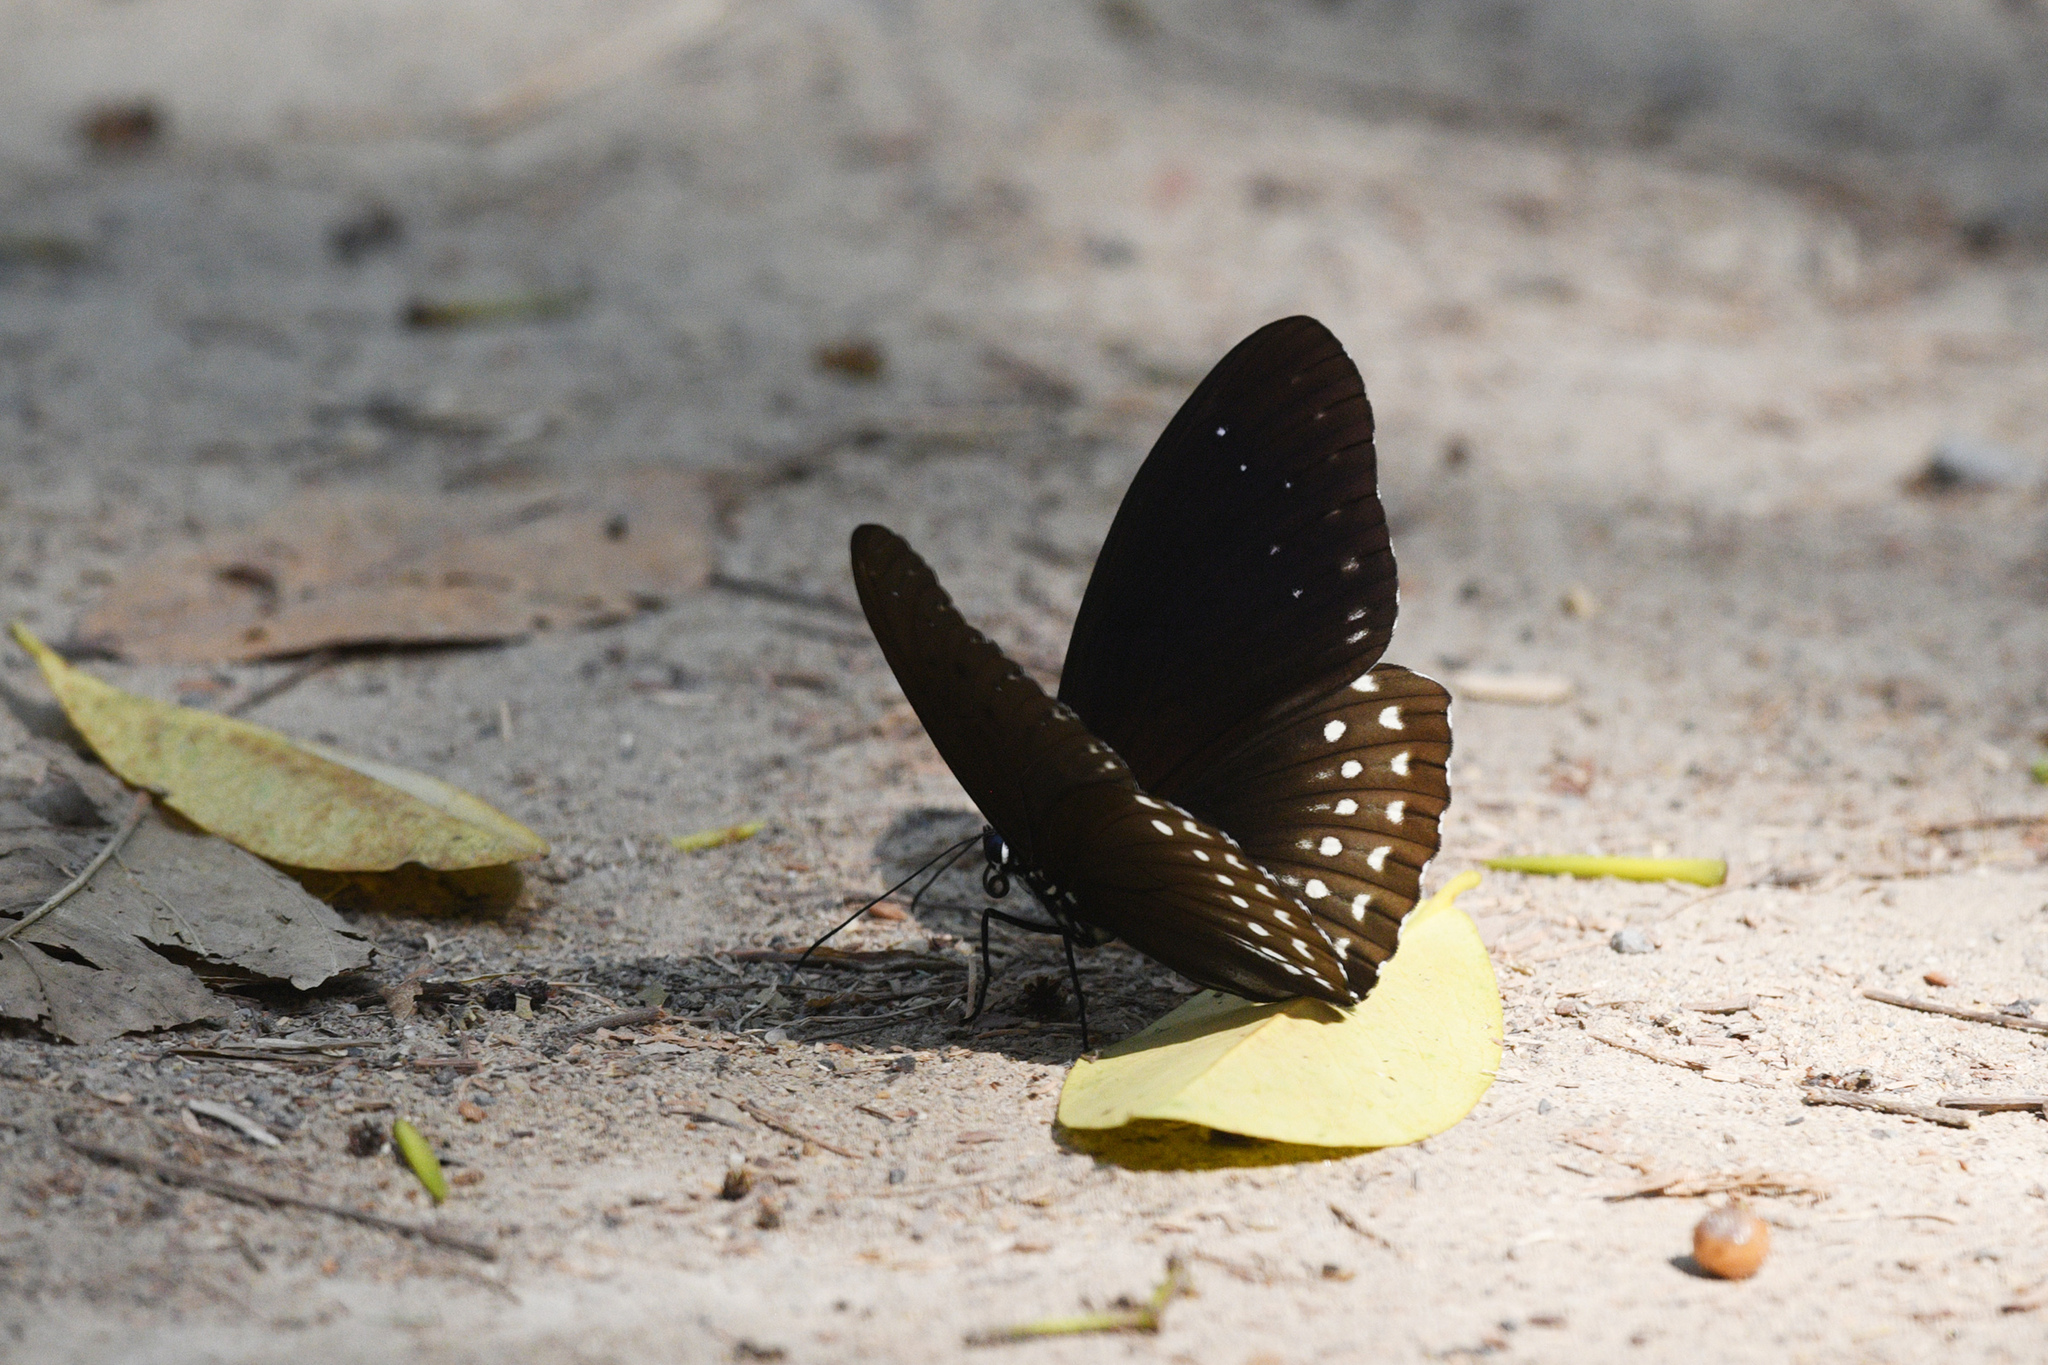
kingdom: Animalia
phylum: Arthropoda
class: Insecta
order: Lepidoptera
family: Nymphalidae
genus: Penthema
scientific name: Penthema darlisa
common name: Three-coloured kaiser
